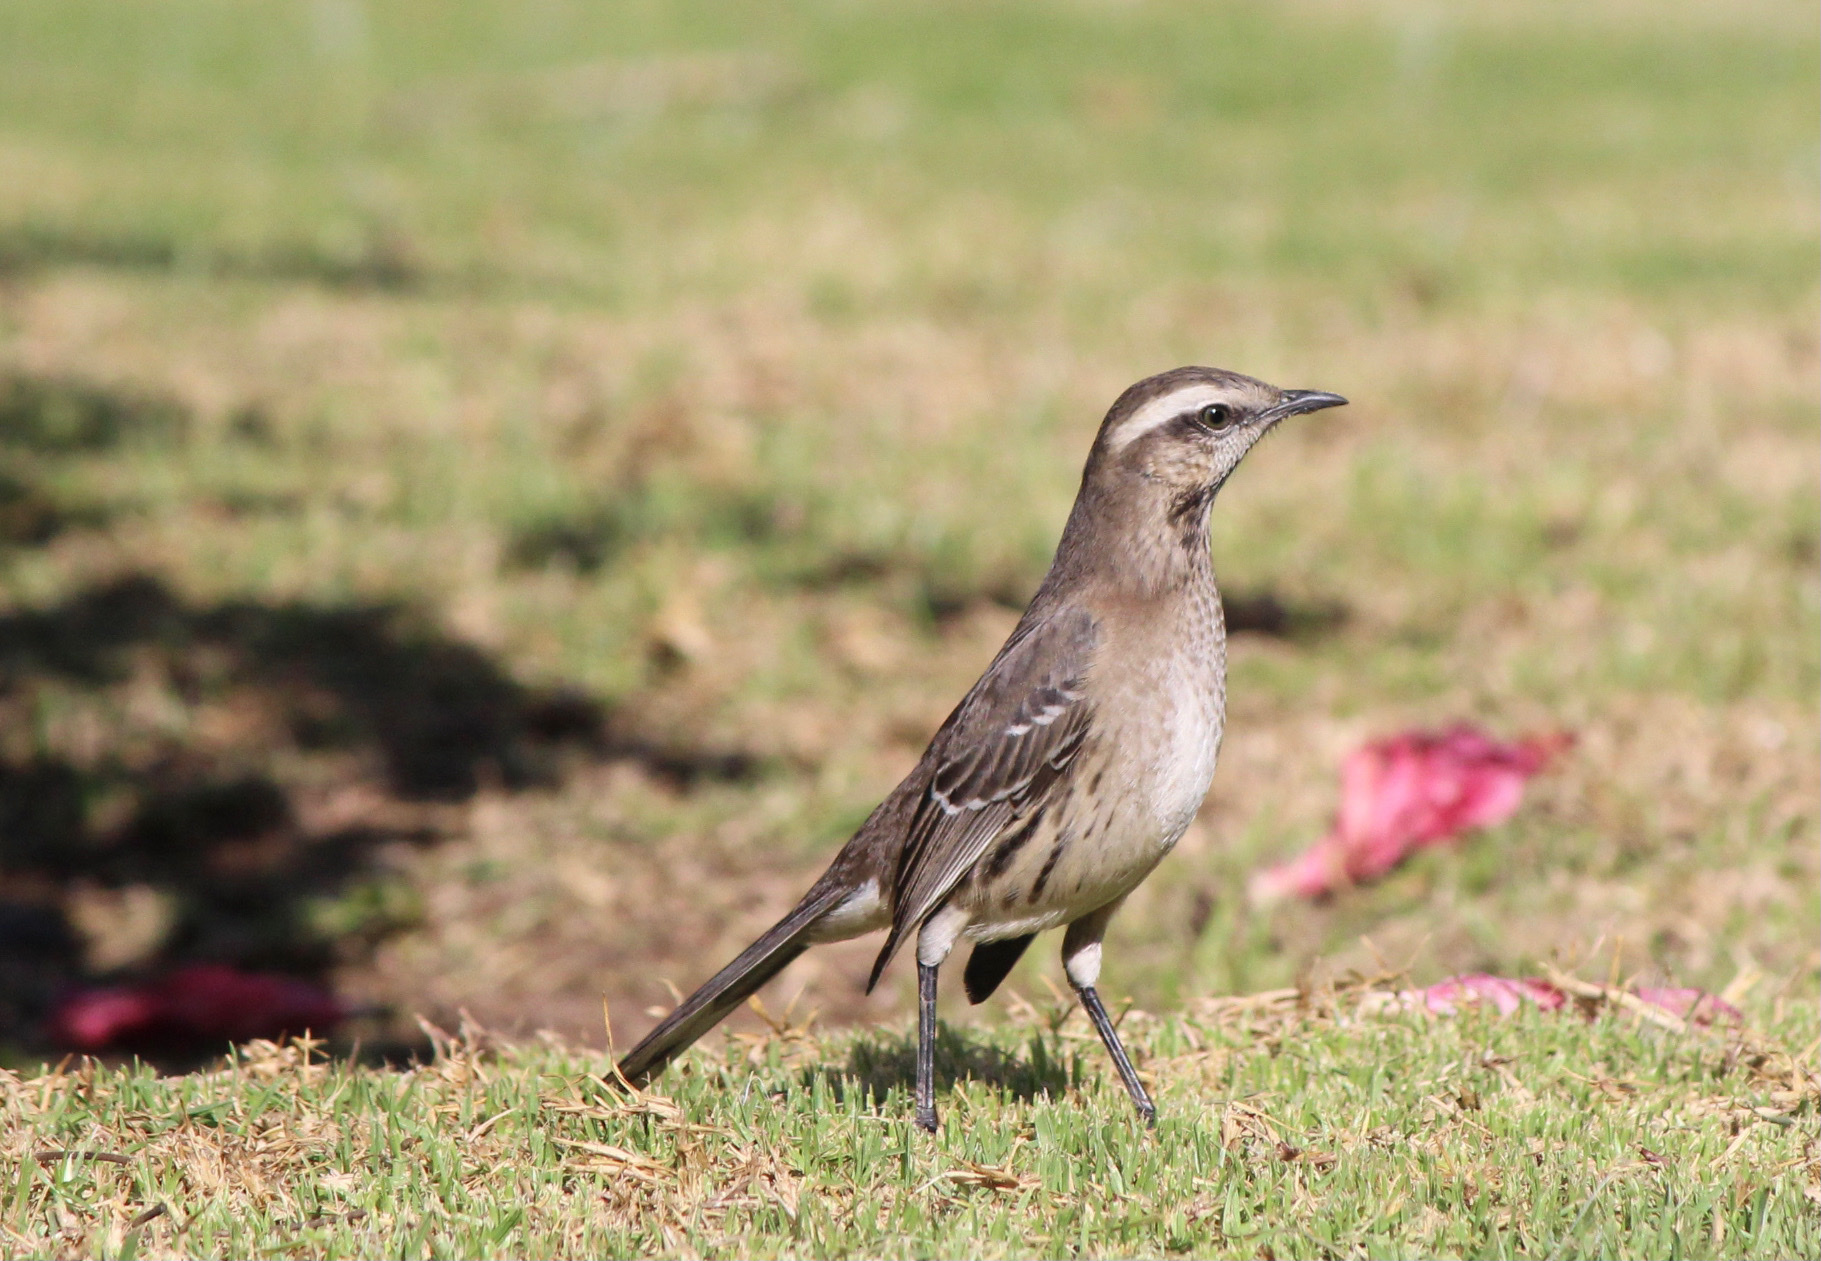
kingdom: Animalia
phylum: Chordata
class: Aves
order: Passeriformes
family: Mimidae
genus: Mimus
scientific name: Mimus thenca
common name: Chilean mockingbird
